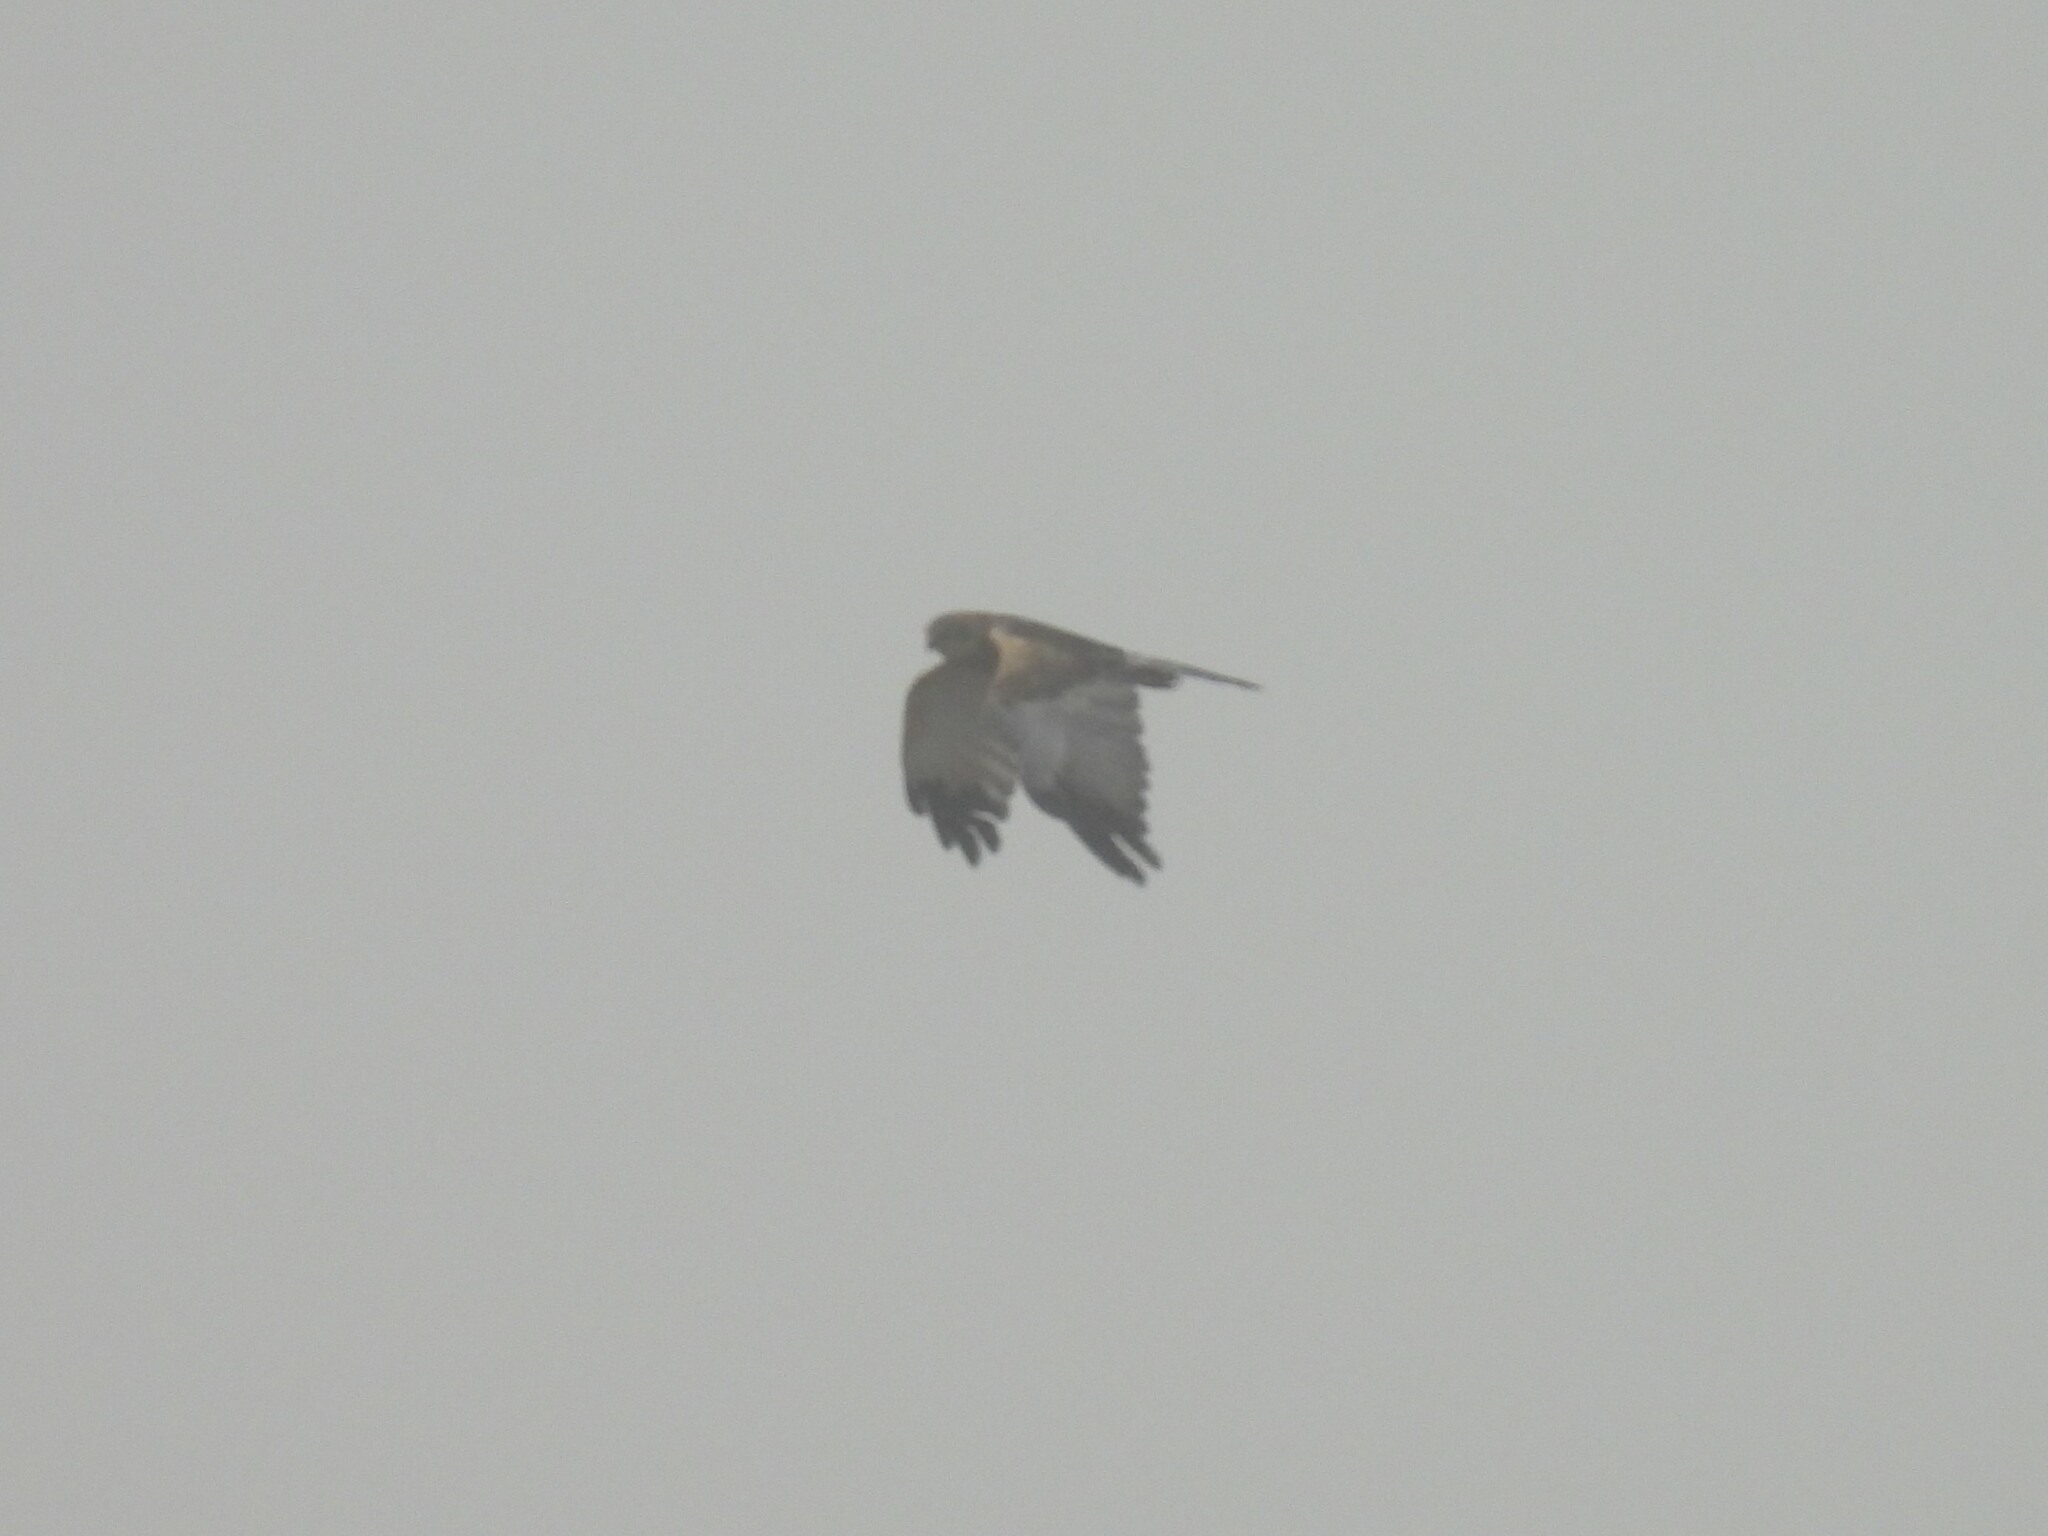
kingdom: Animalia
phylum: Chordata
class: Aves
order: Accipitriformes
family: Accipitridae
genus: Circus
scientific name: Circus aeruginosus
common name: Western marsh harrier
